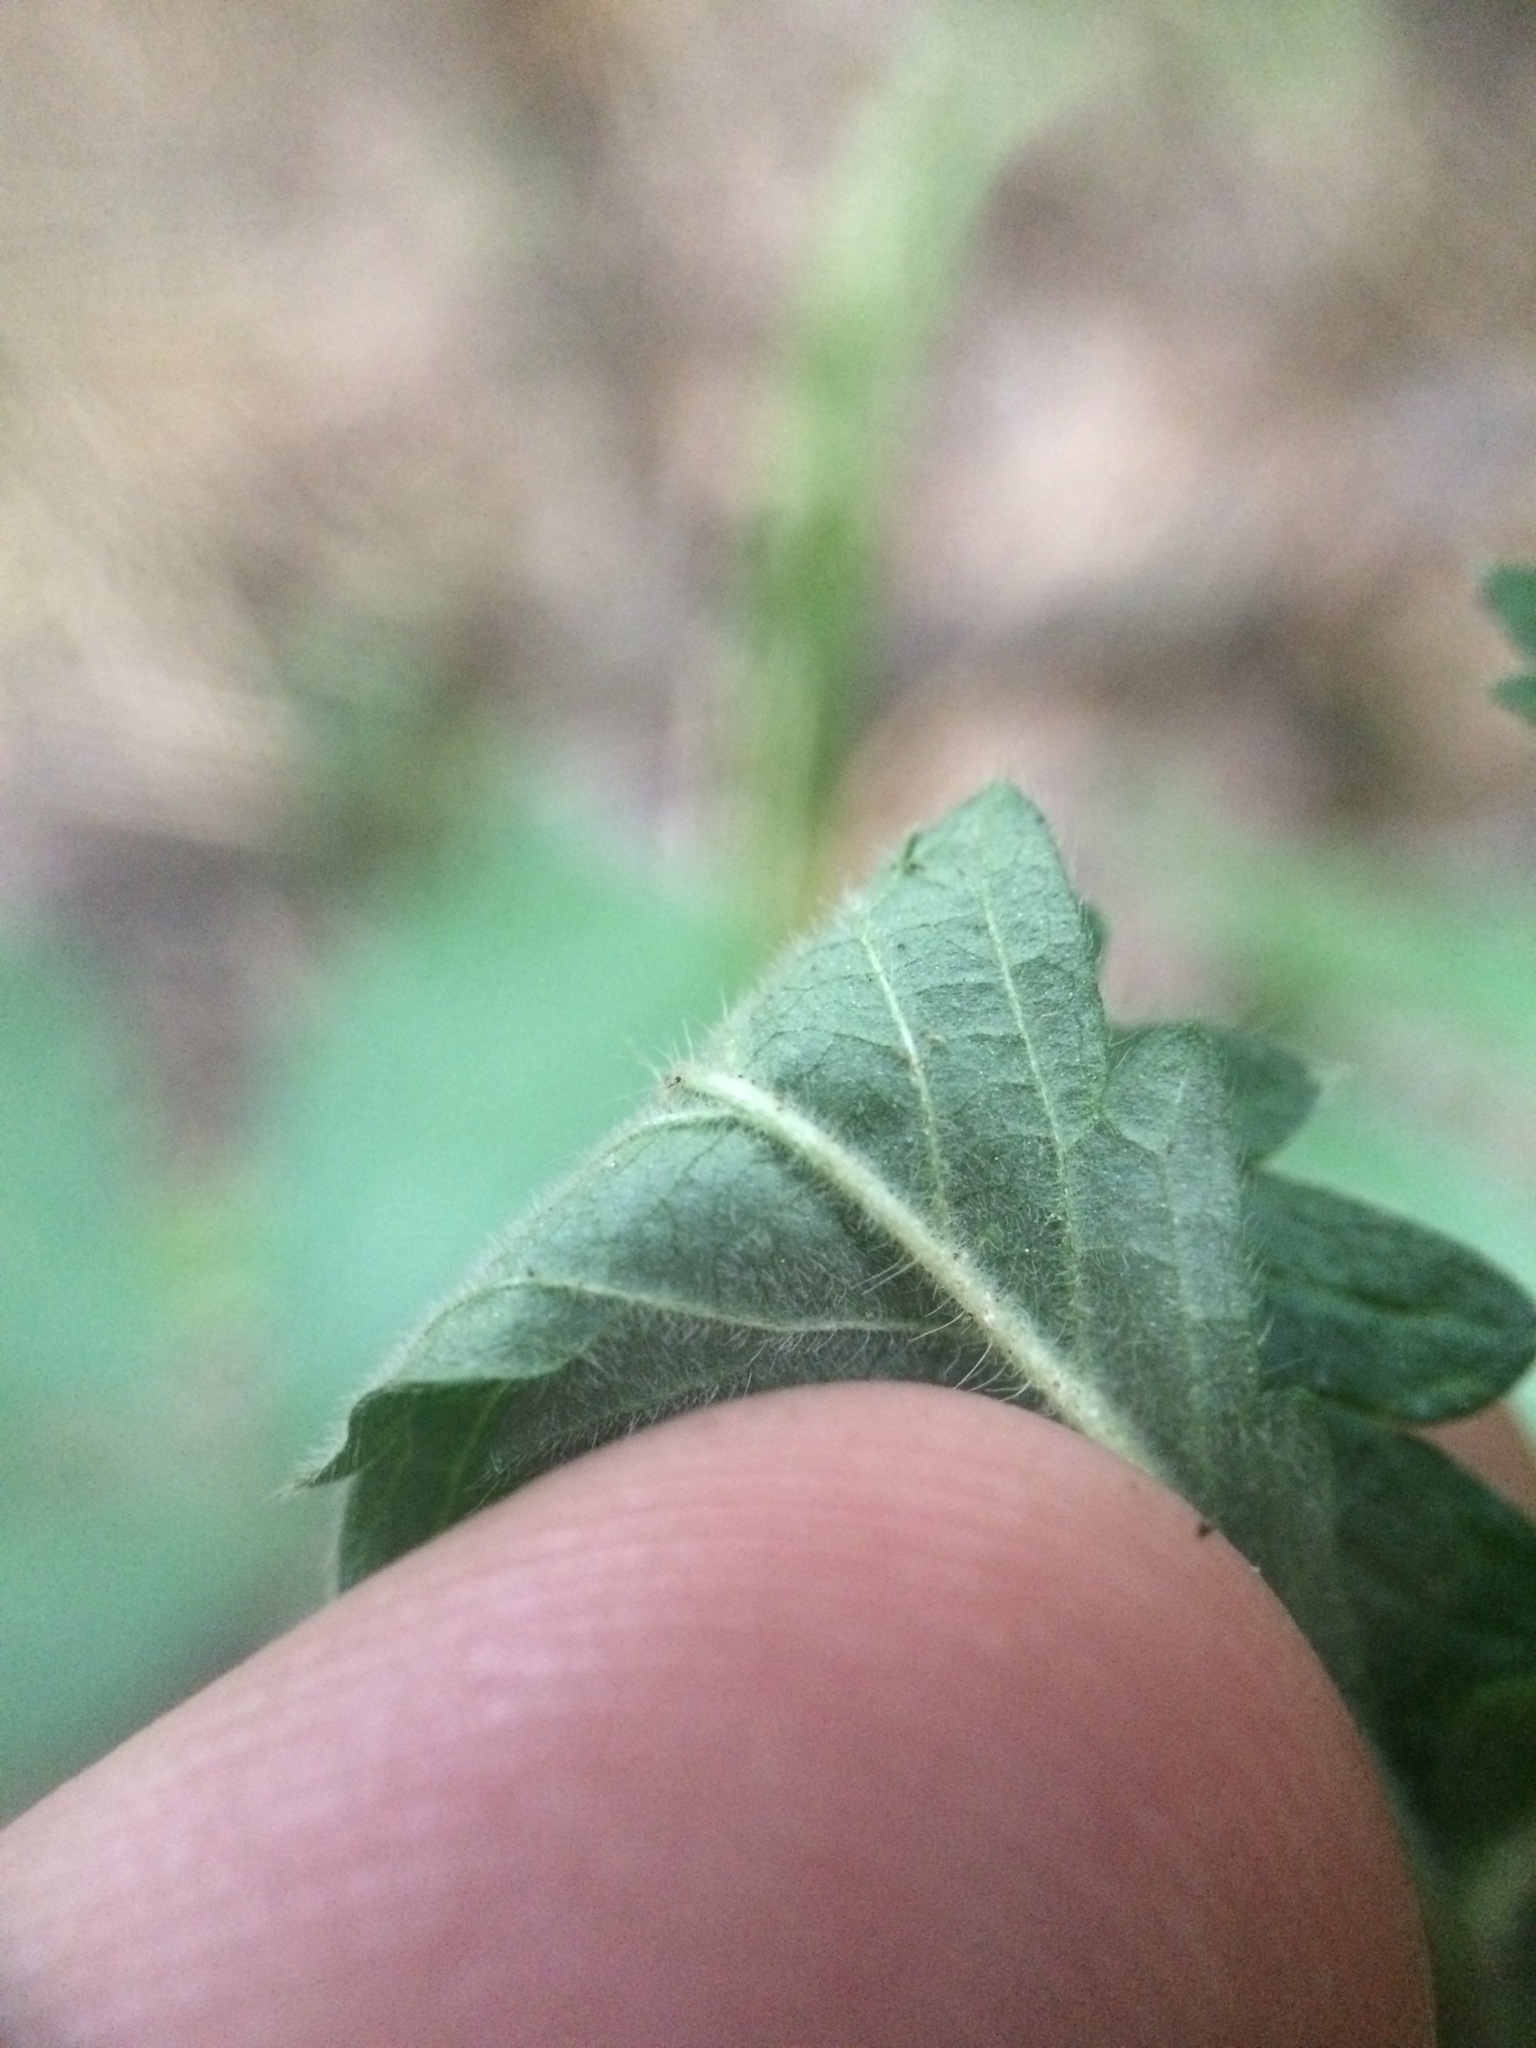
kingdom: Plantae
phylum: Tracheophyta
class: Magnoliopsida
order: Rosales
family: Rosaceae
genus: Agrimonia
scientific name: Agrimonia pubescens
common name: Downy agrimony
